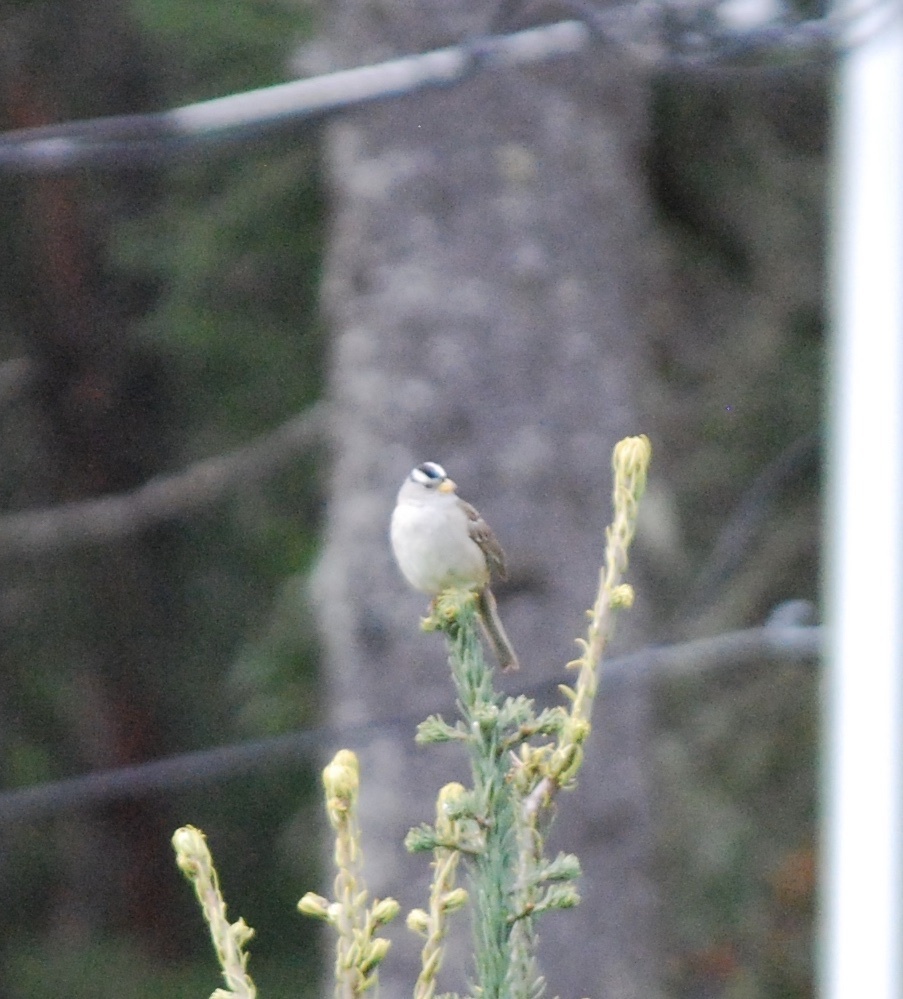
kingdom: Animalia
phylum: Chordata
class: Aves
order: Passeriformes
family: Passerellidae
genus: Zonotrichia
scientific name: Zonotrichia leucophrys
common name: White-crowned sparrow
